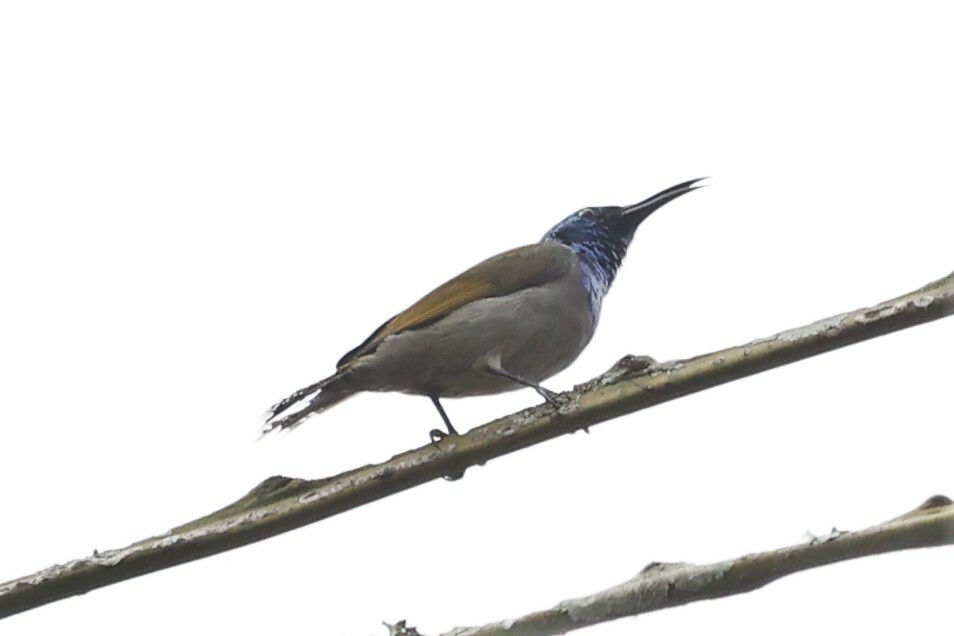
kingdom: Animalia
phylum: Chordata
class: Aves
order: Passeriformes
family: Nectariniidae
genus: Cyanomitra
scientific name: Cyanomitra verticalis
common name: Green-headed sunbird
